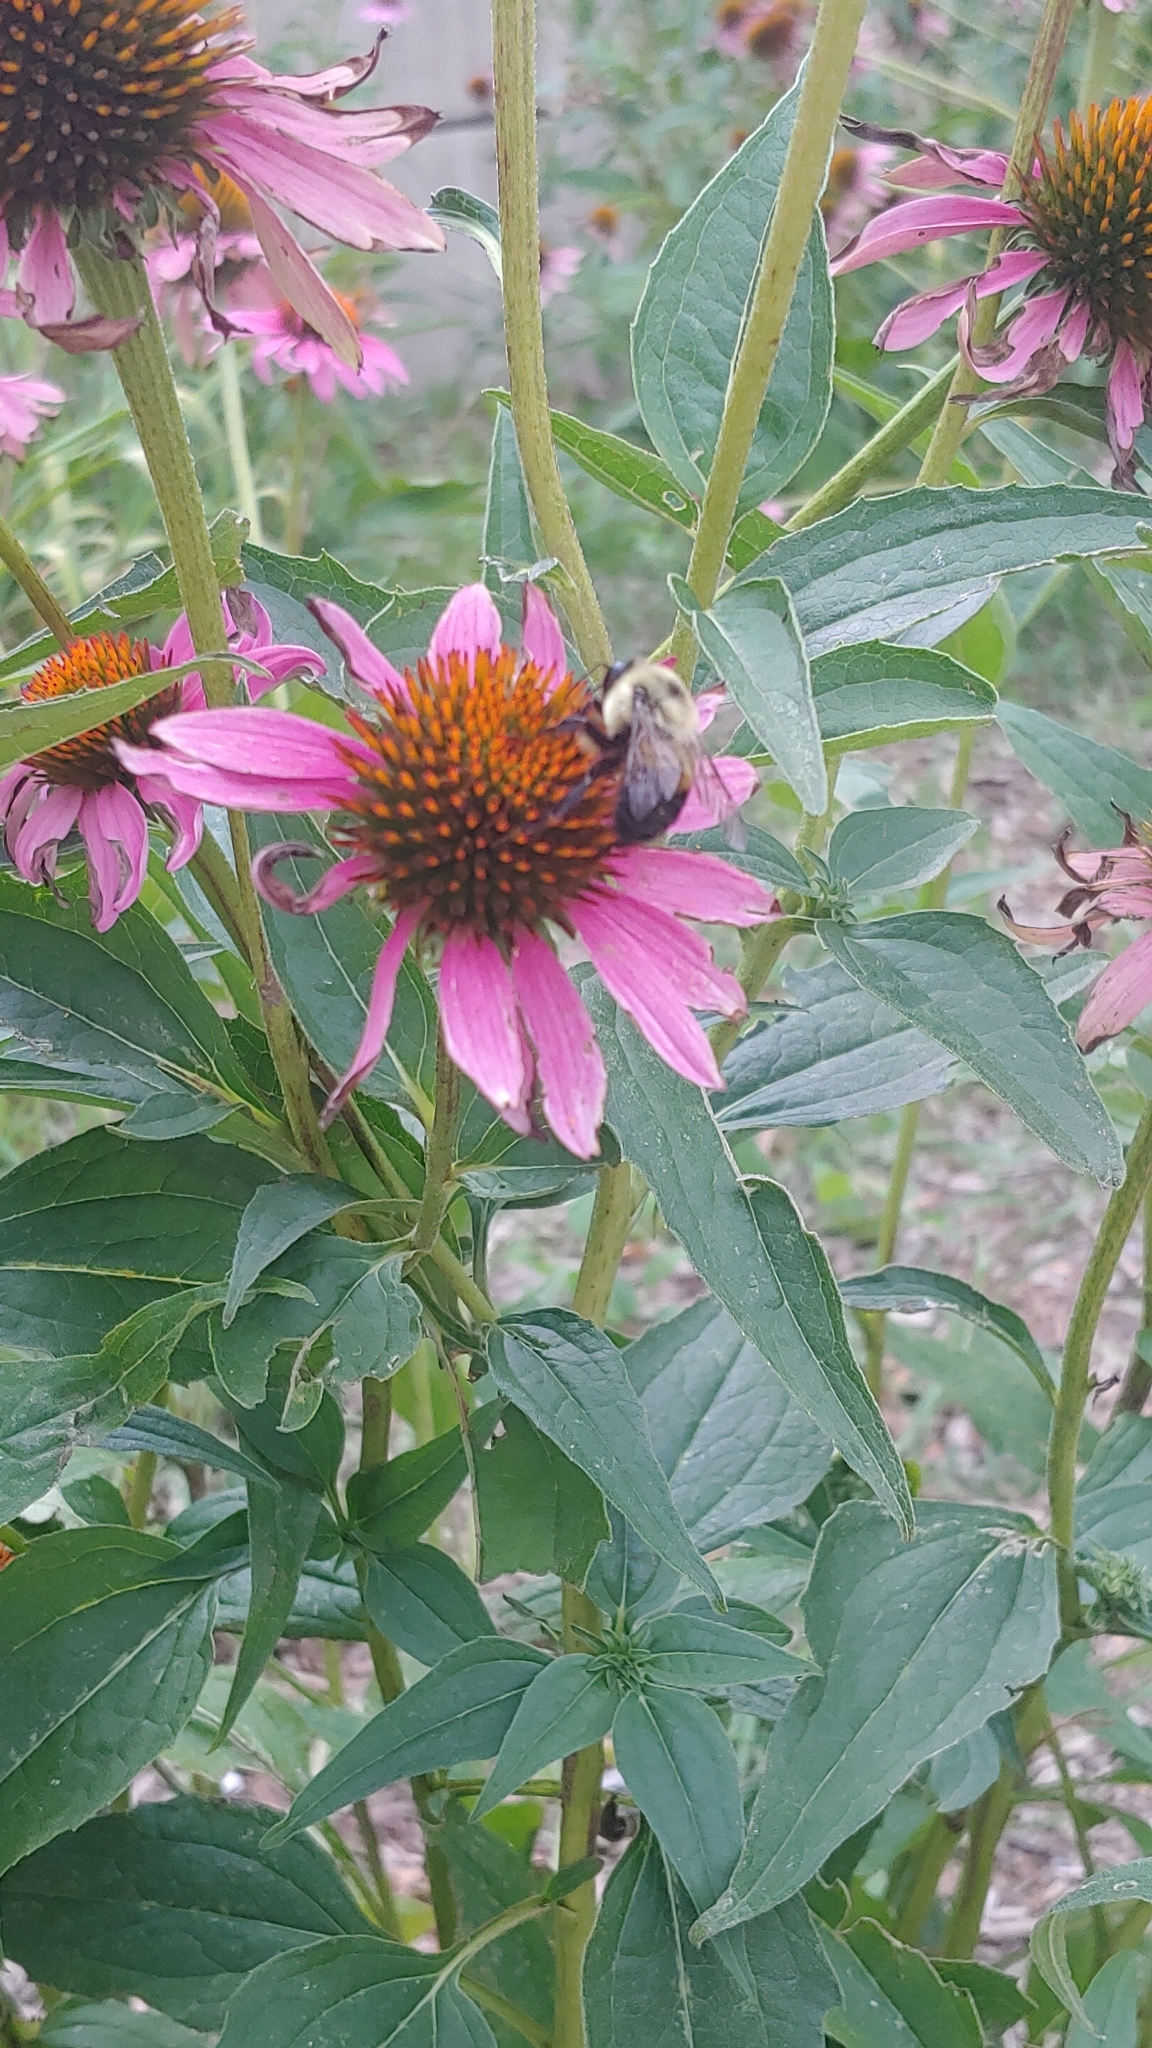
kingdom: Animalia
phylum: Arthropoda
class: Insecta
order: Hymenoptera
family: Apidae
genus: Bombus
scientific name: Bombus griseocollis
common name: Brown-belted bumble bee
